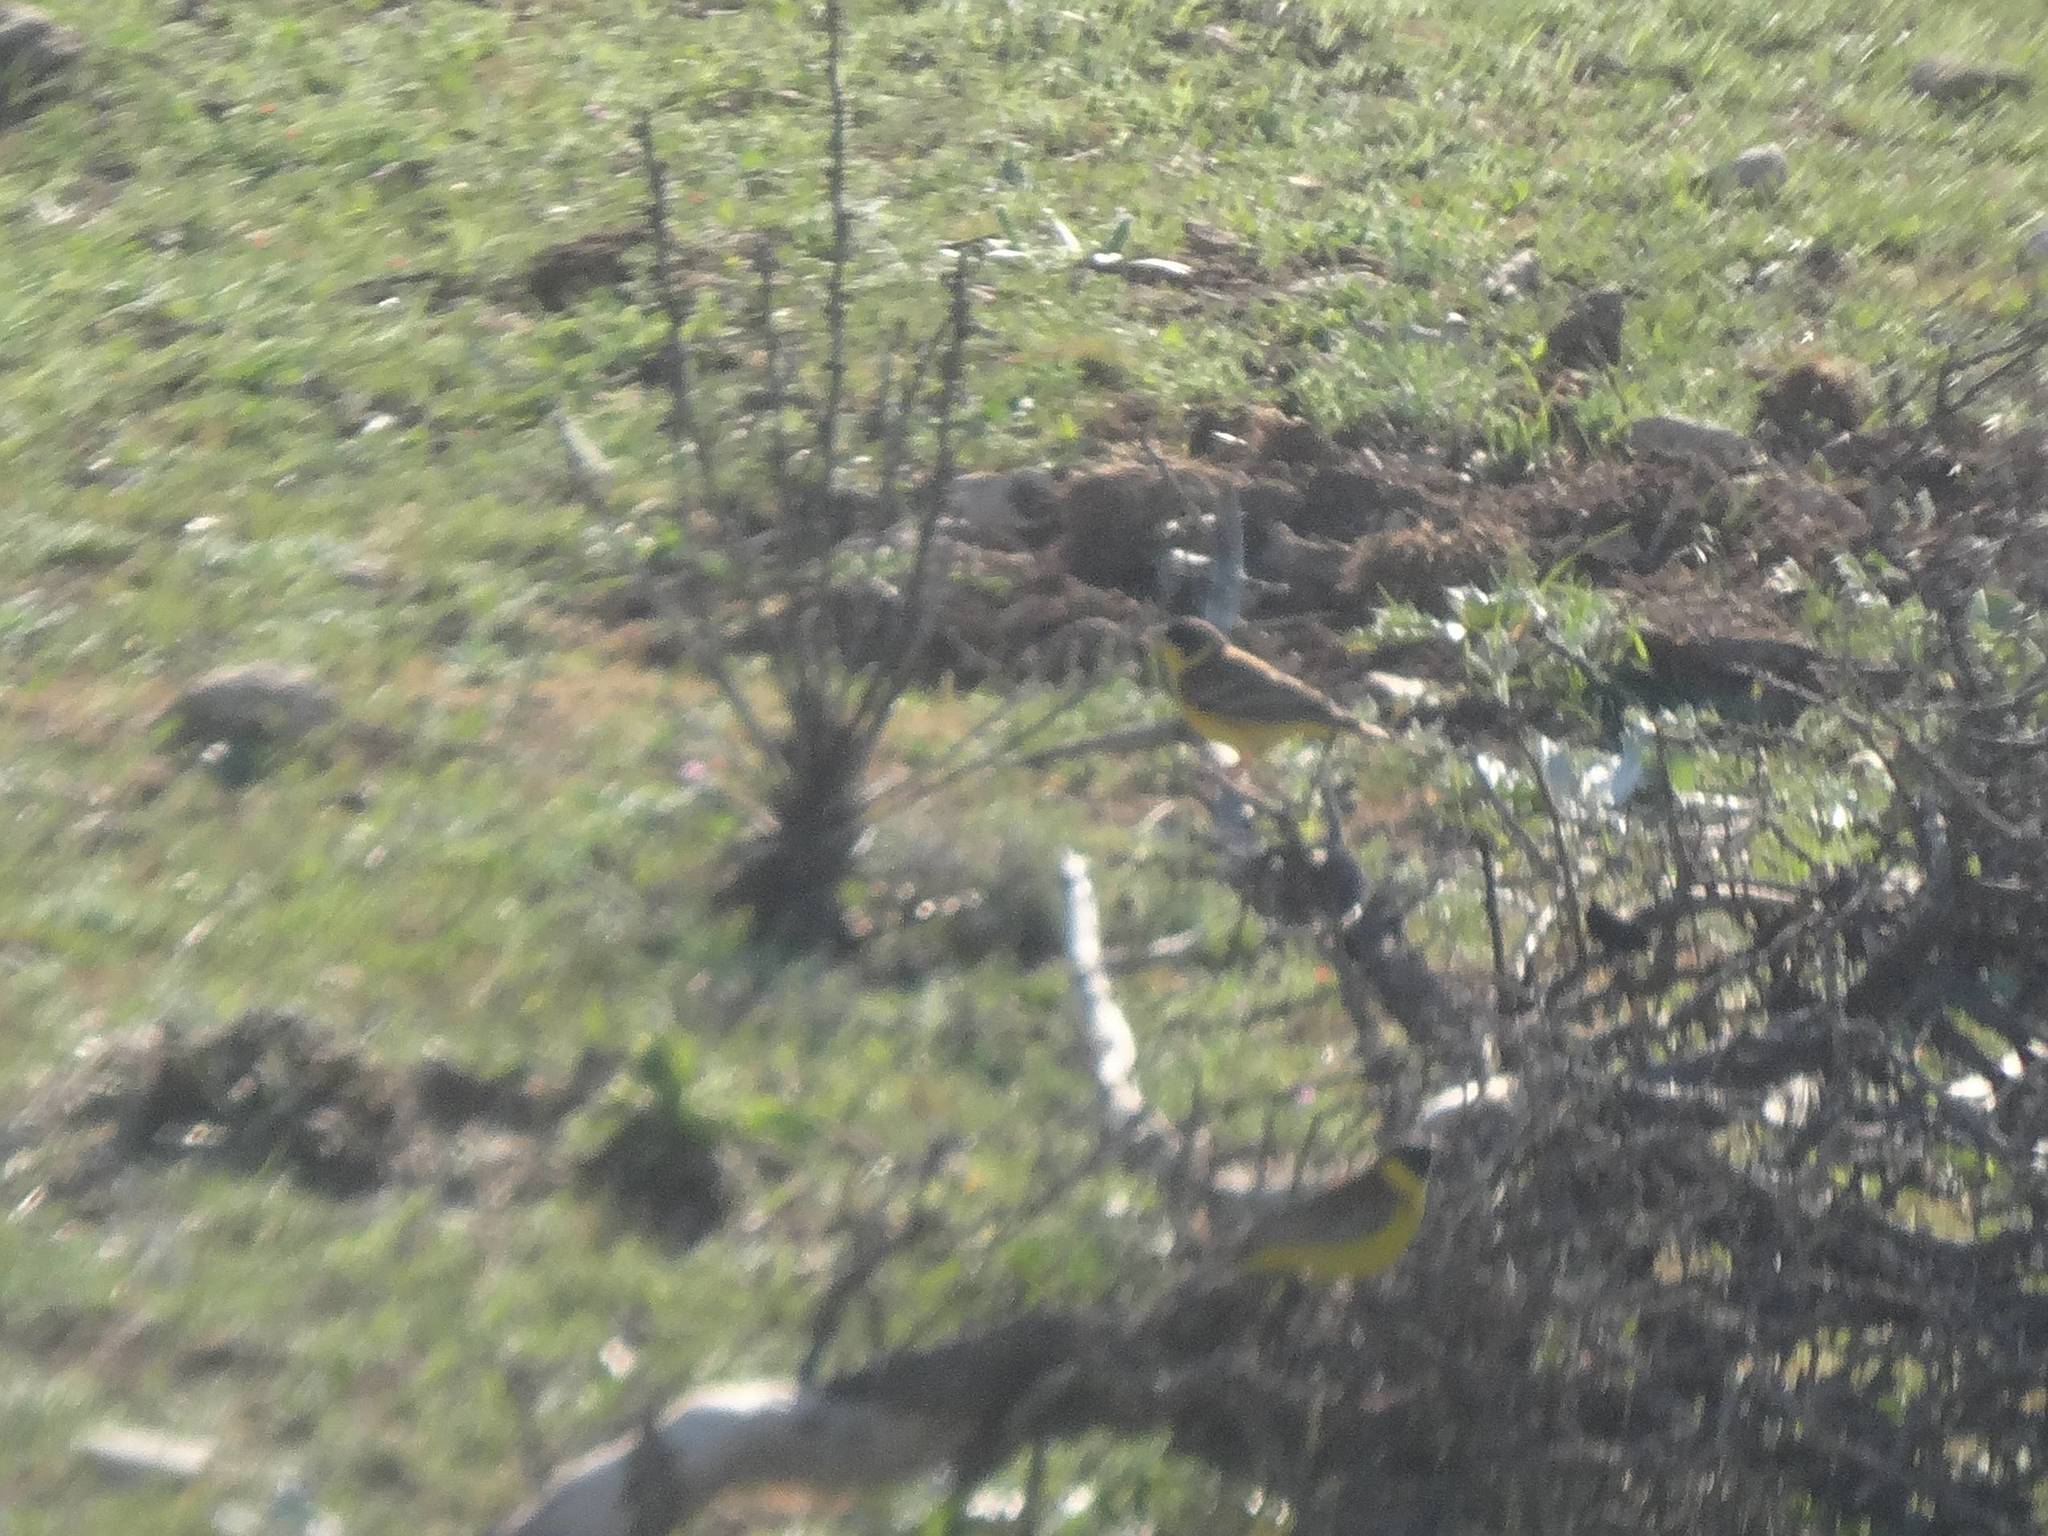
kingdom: Animalia
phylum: Chordata
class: Aves
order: Passeriformes
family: Emberizidae
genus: Emberiza
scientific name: Emberiza melanocephala
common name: Black-headed bunting
